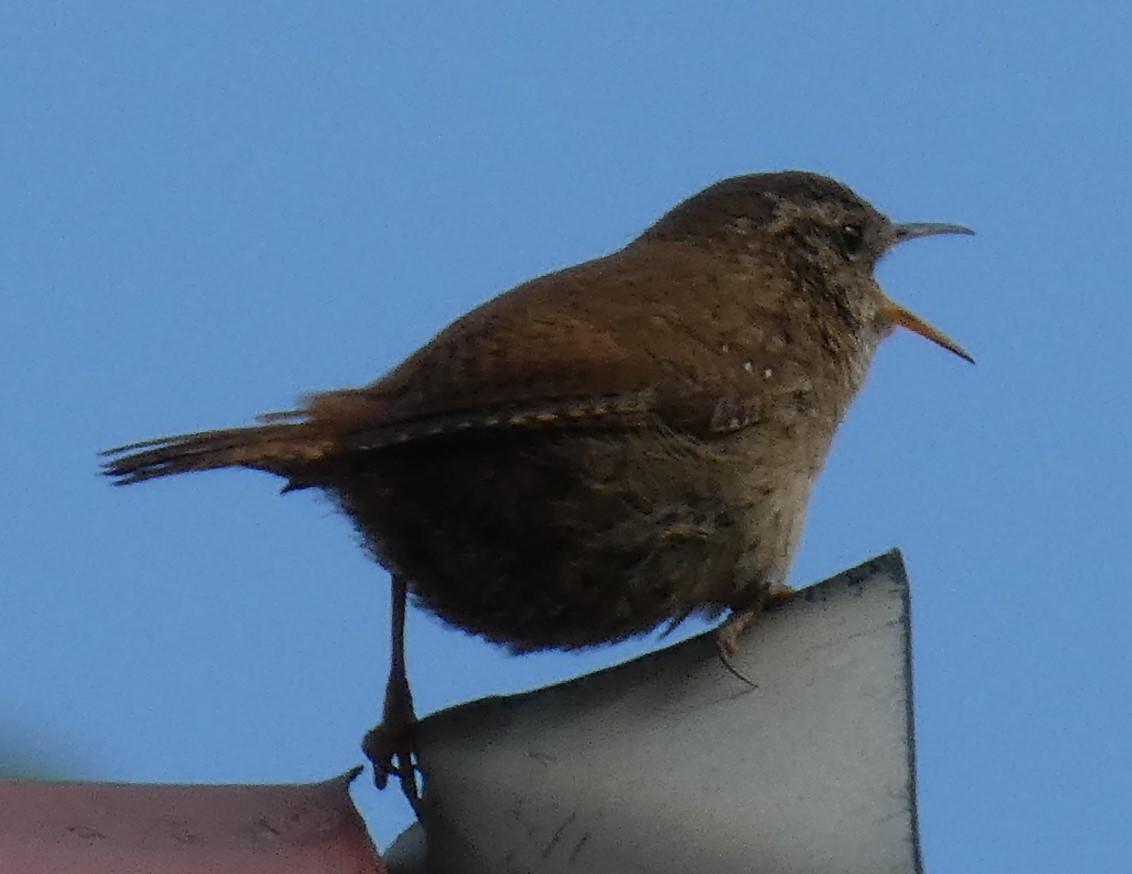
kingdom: Animalia
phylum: Chordata
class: Aves
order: Passeriformes
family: Troglodytidae
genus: Troglodytes
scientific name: Troglodytes troglodytes
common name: Eurasian wren
